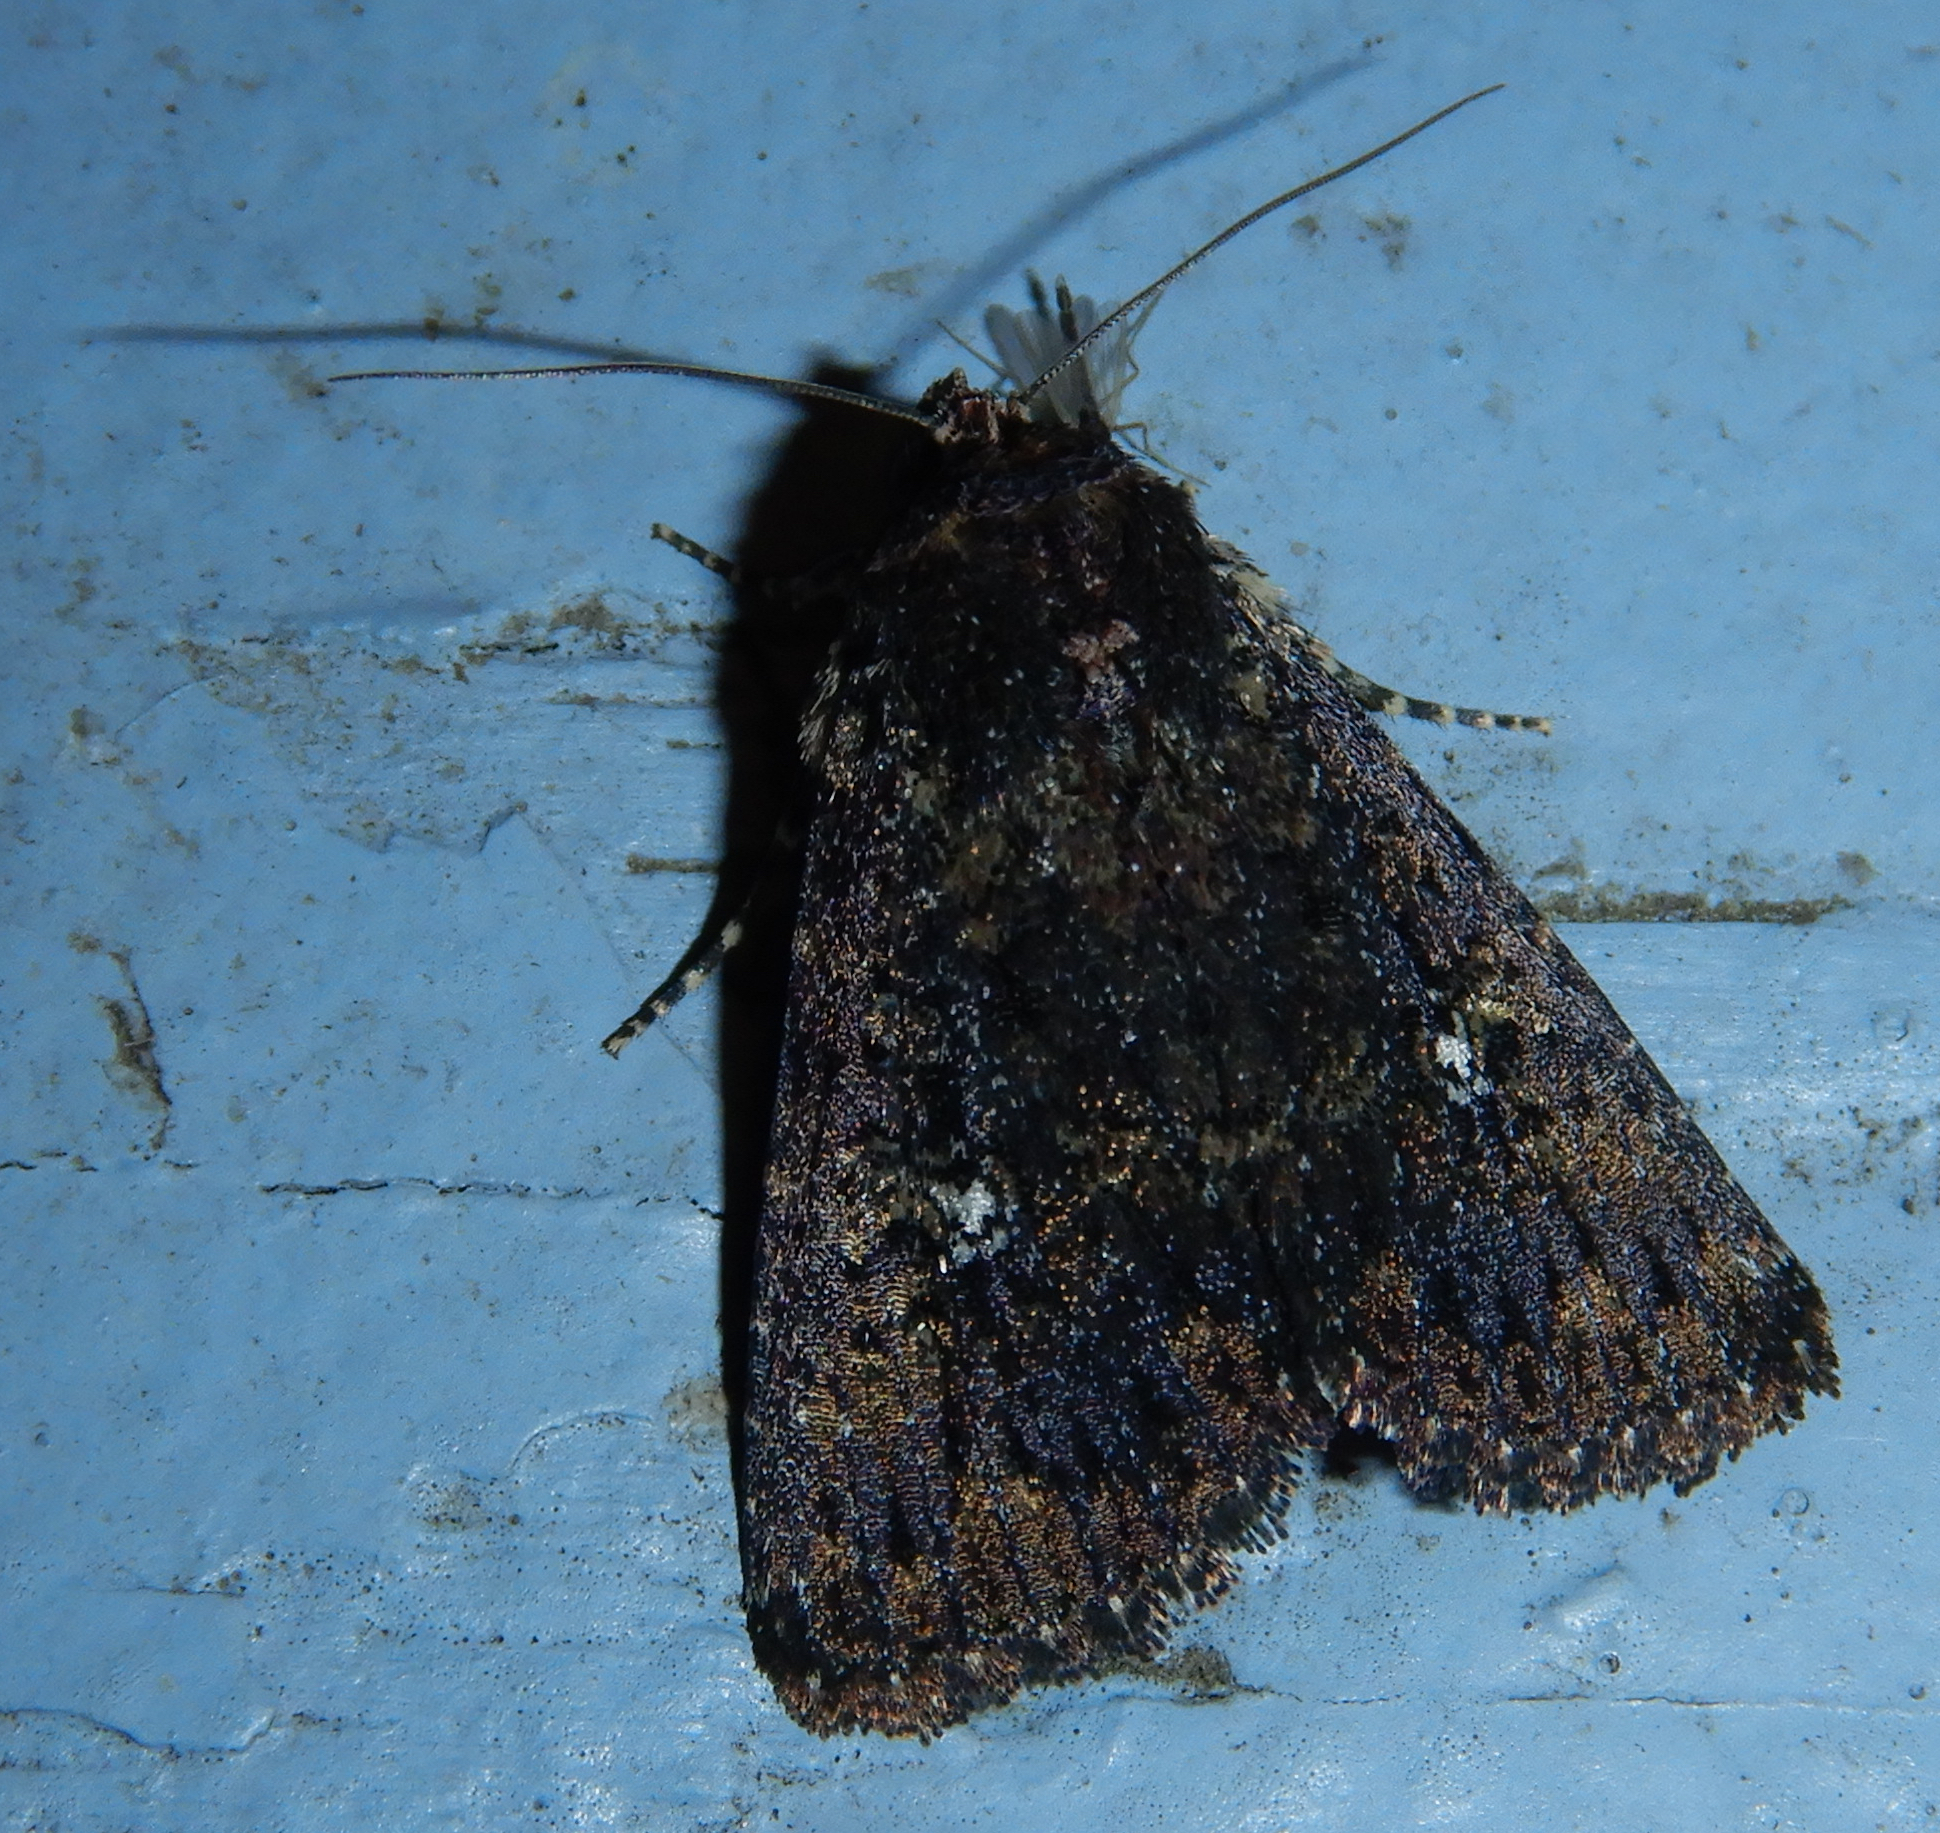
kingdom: Animalia
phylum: Arthropoda
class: Insecta
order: Lepidoptera
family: Noctuidae
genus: Condica
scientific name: Condica vecors
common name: Dusky groundling
